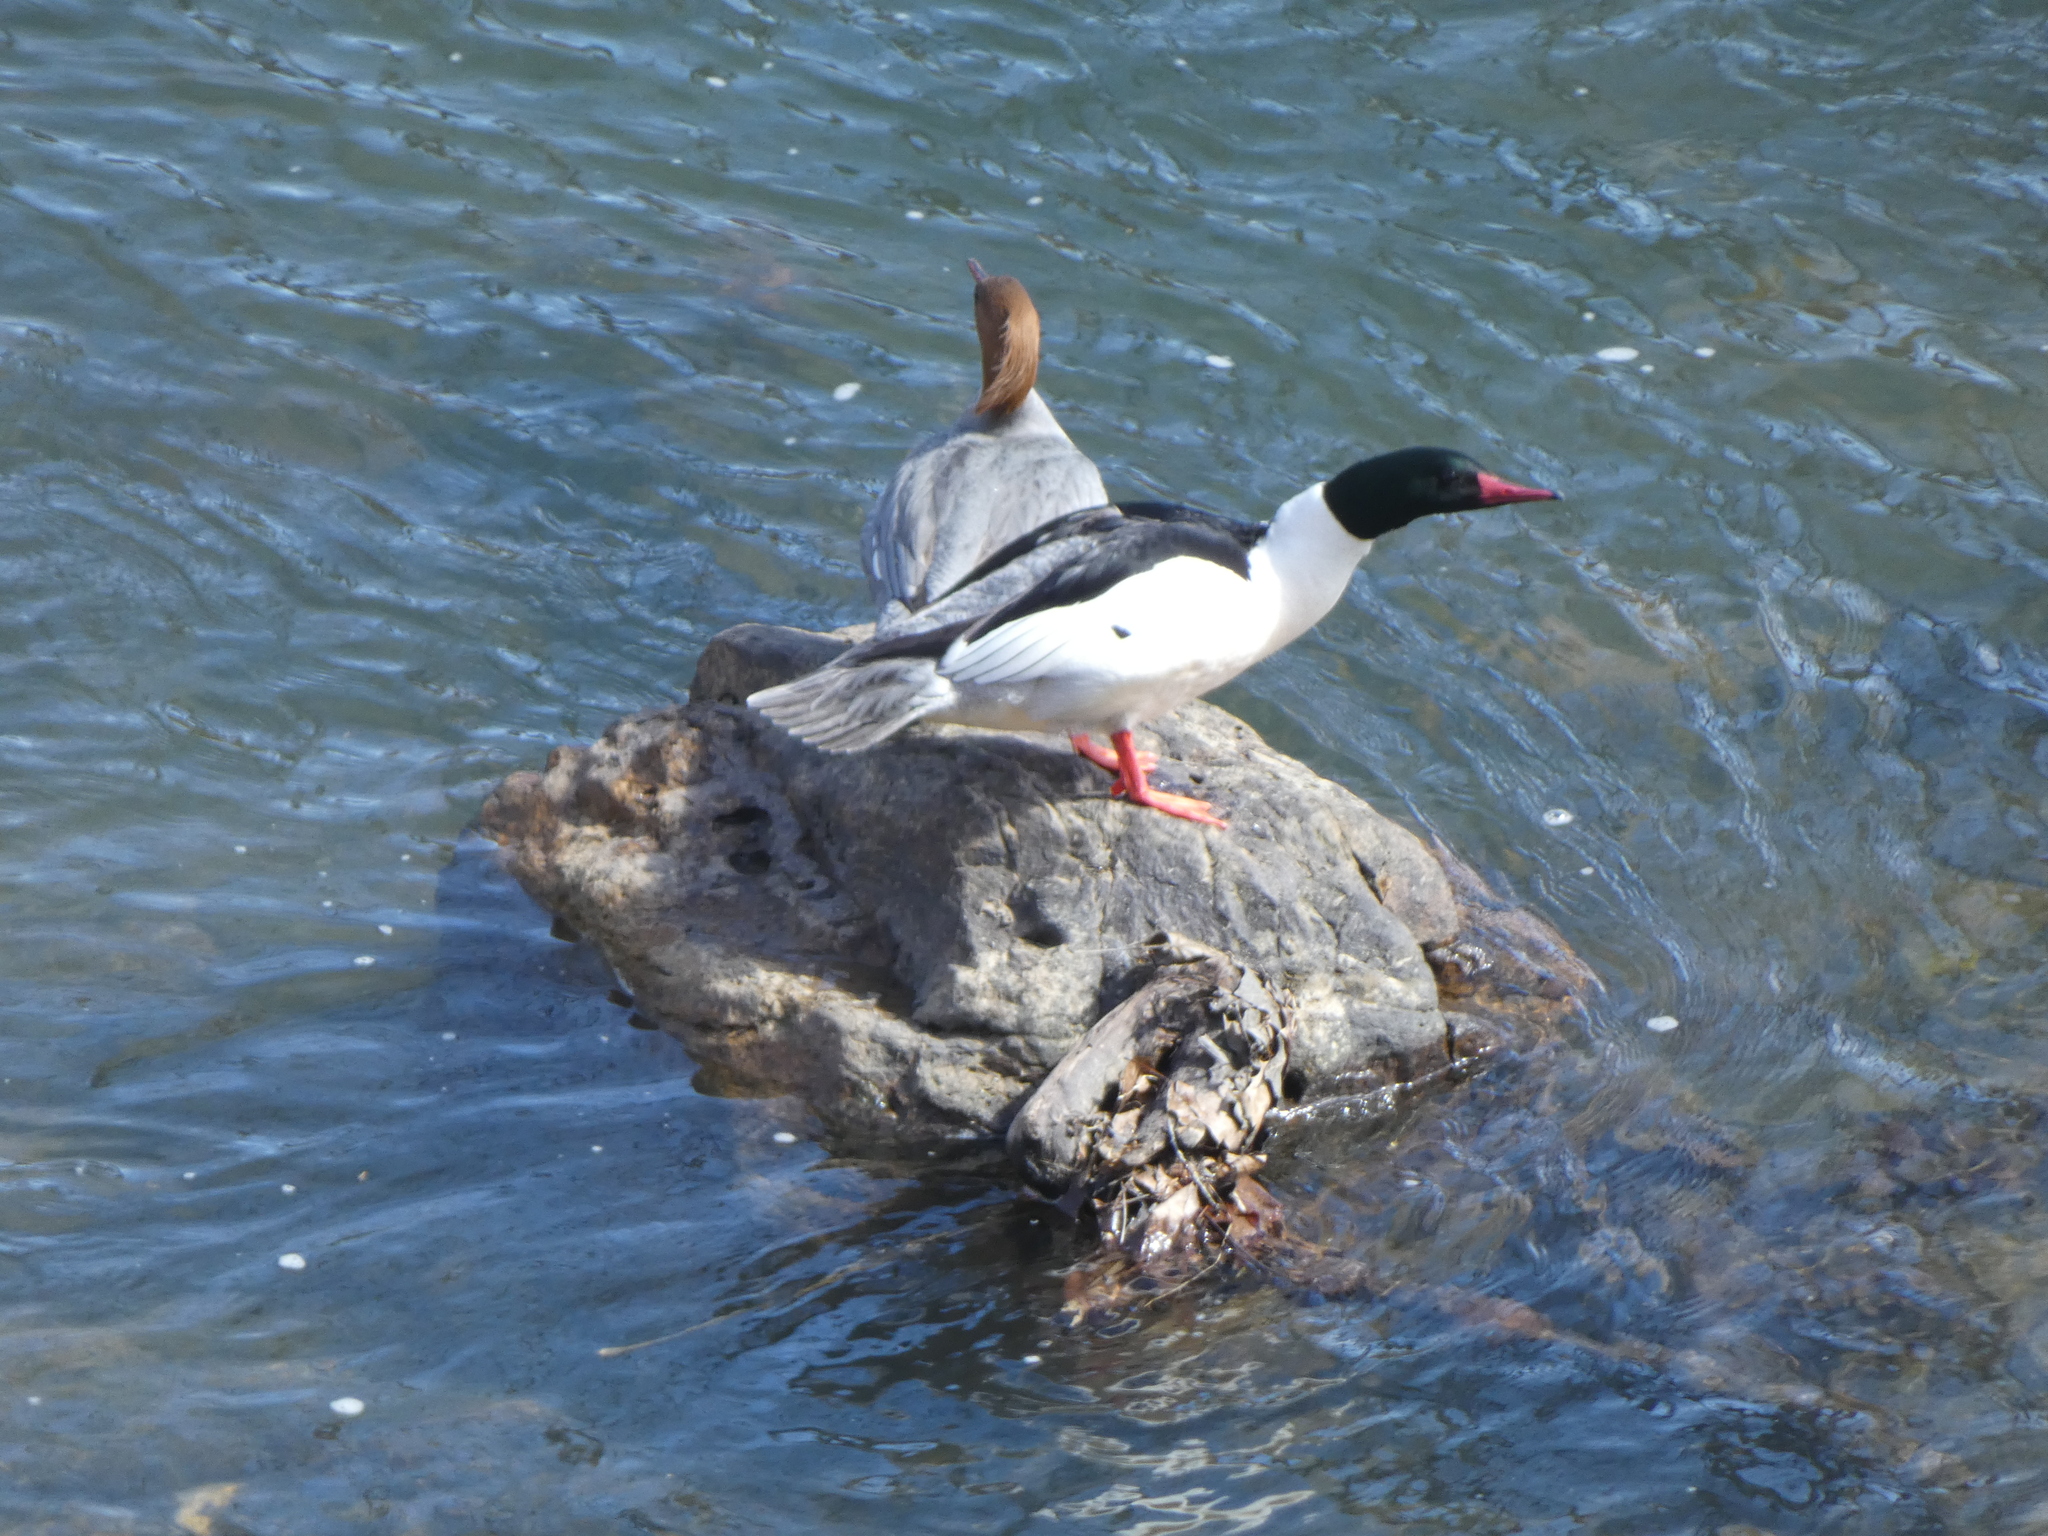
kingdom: Animalia
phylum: Chordata
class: Aves
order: Anseriformes
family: Anatidae
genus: Mergus
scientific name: Mergus merganser
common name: Common merganser
